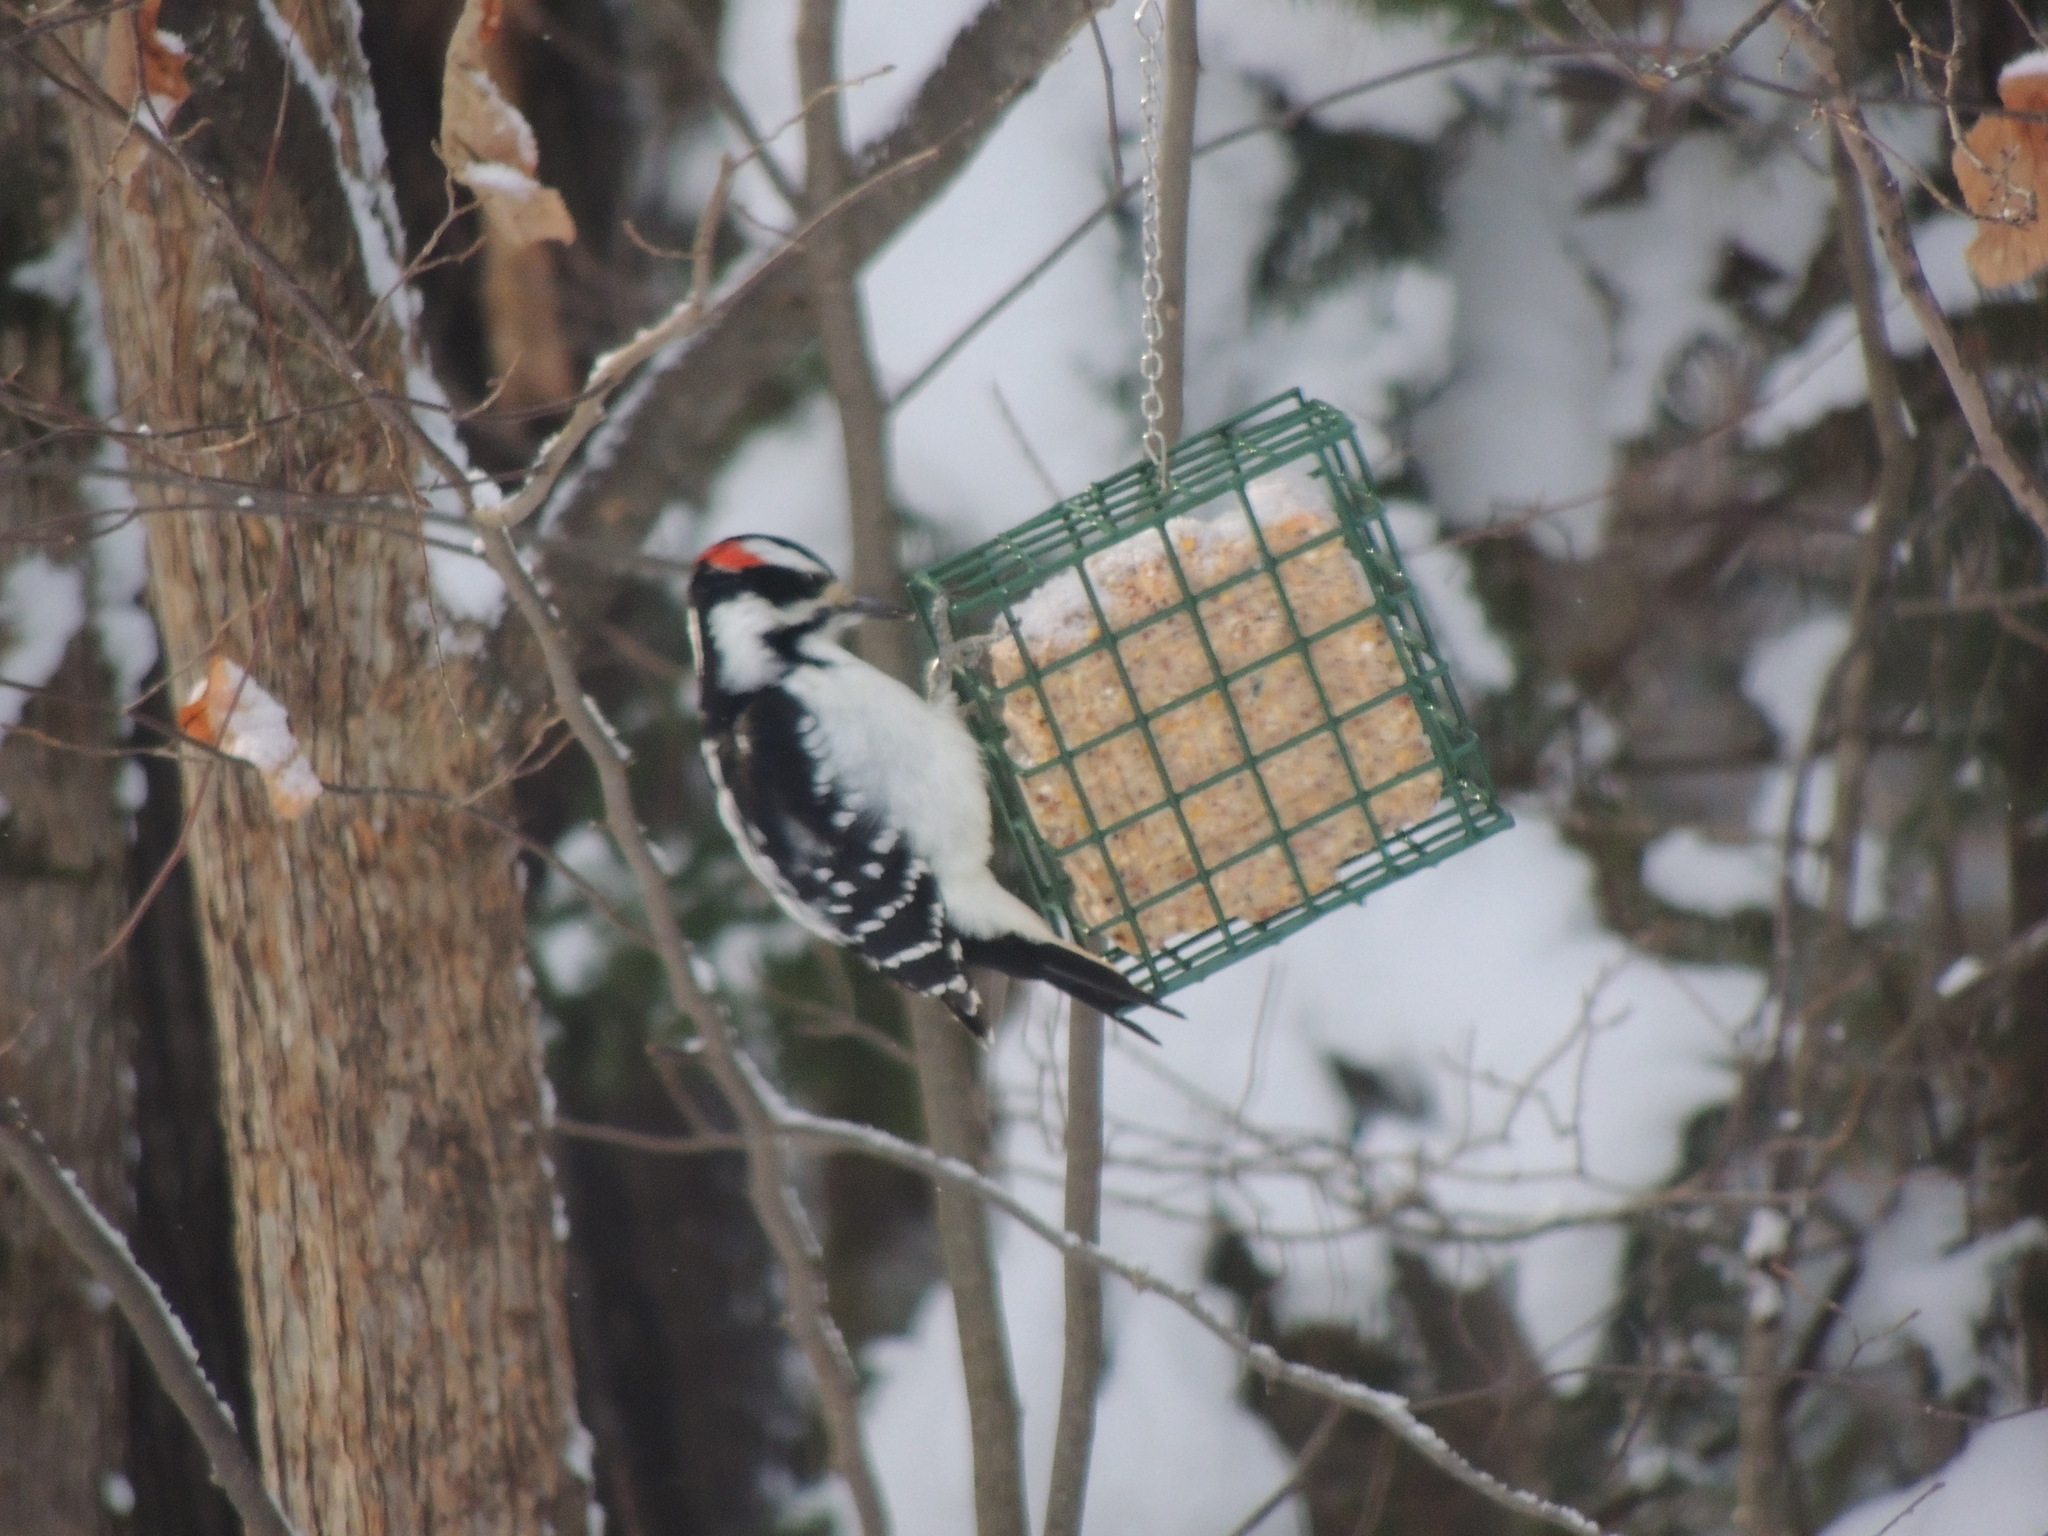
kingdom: Animalia
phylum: Chordata
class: Aves
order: Piciformes
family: Picidae
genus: Leuconotopicus
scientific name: Leuconotopicus villosus
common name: Hairy woodpecker
